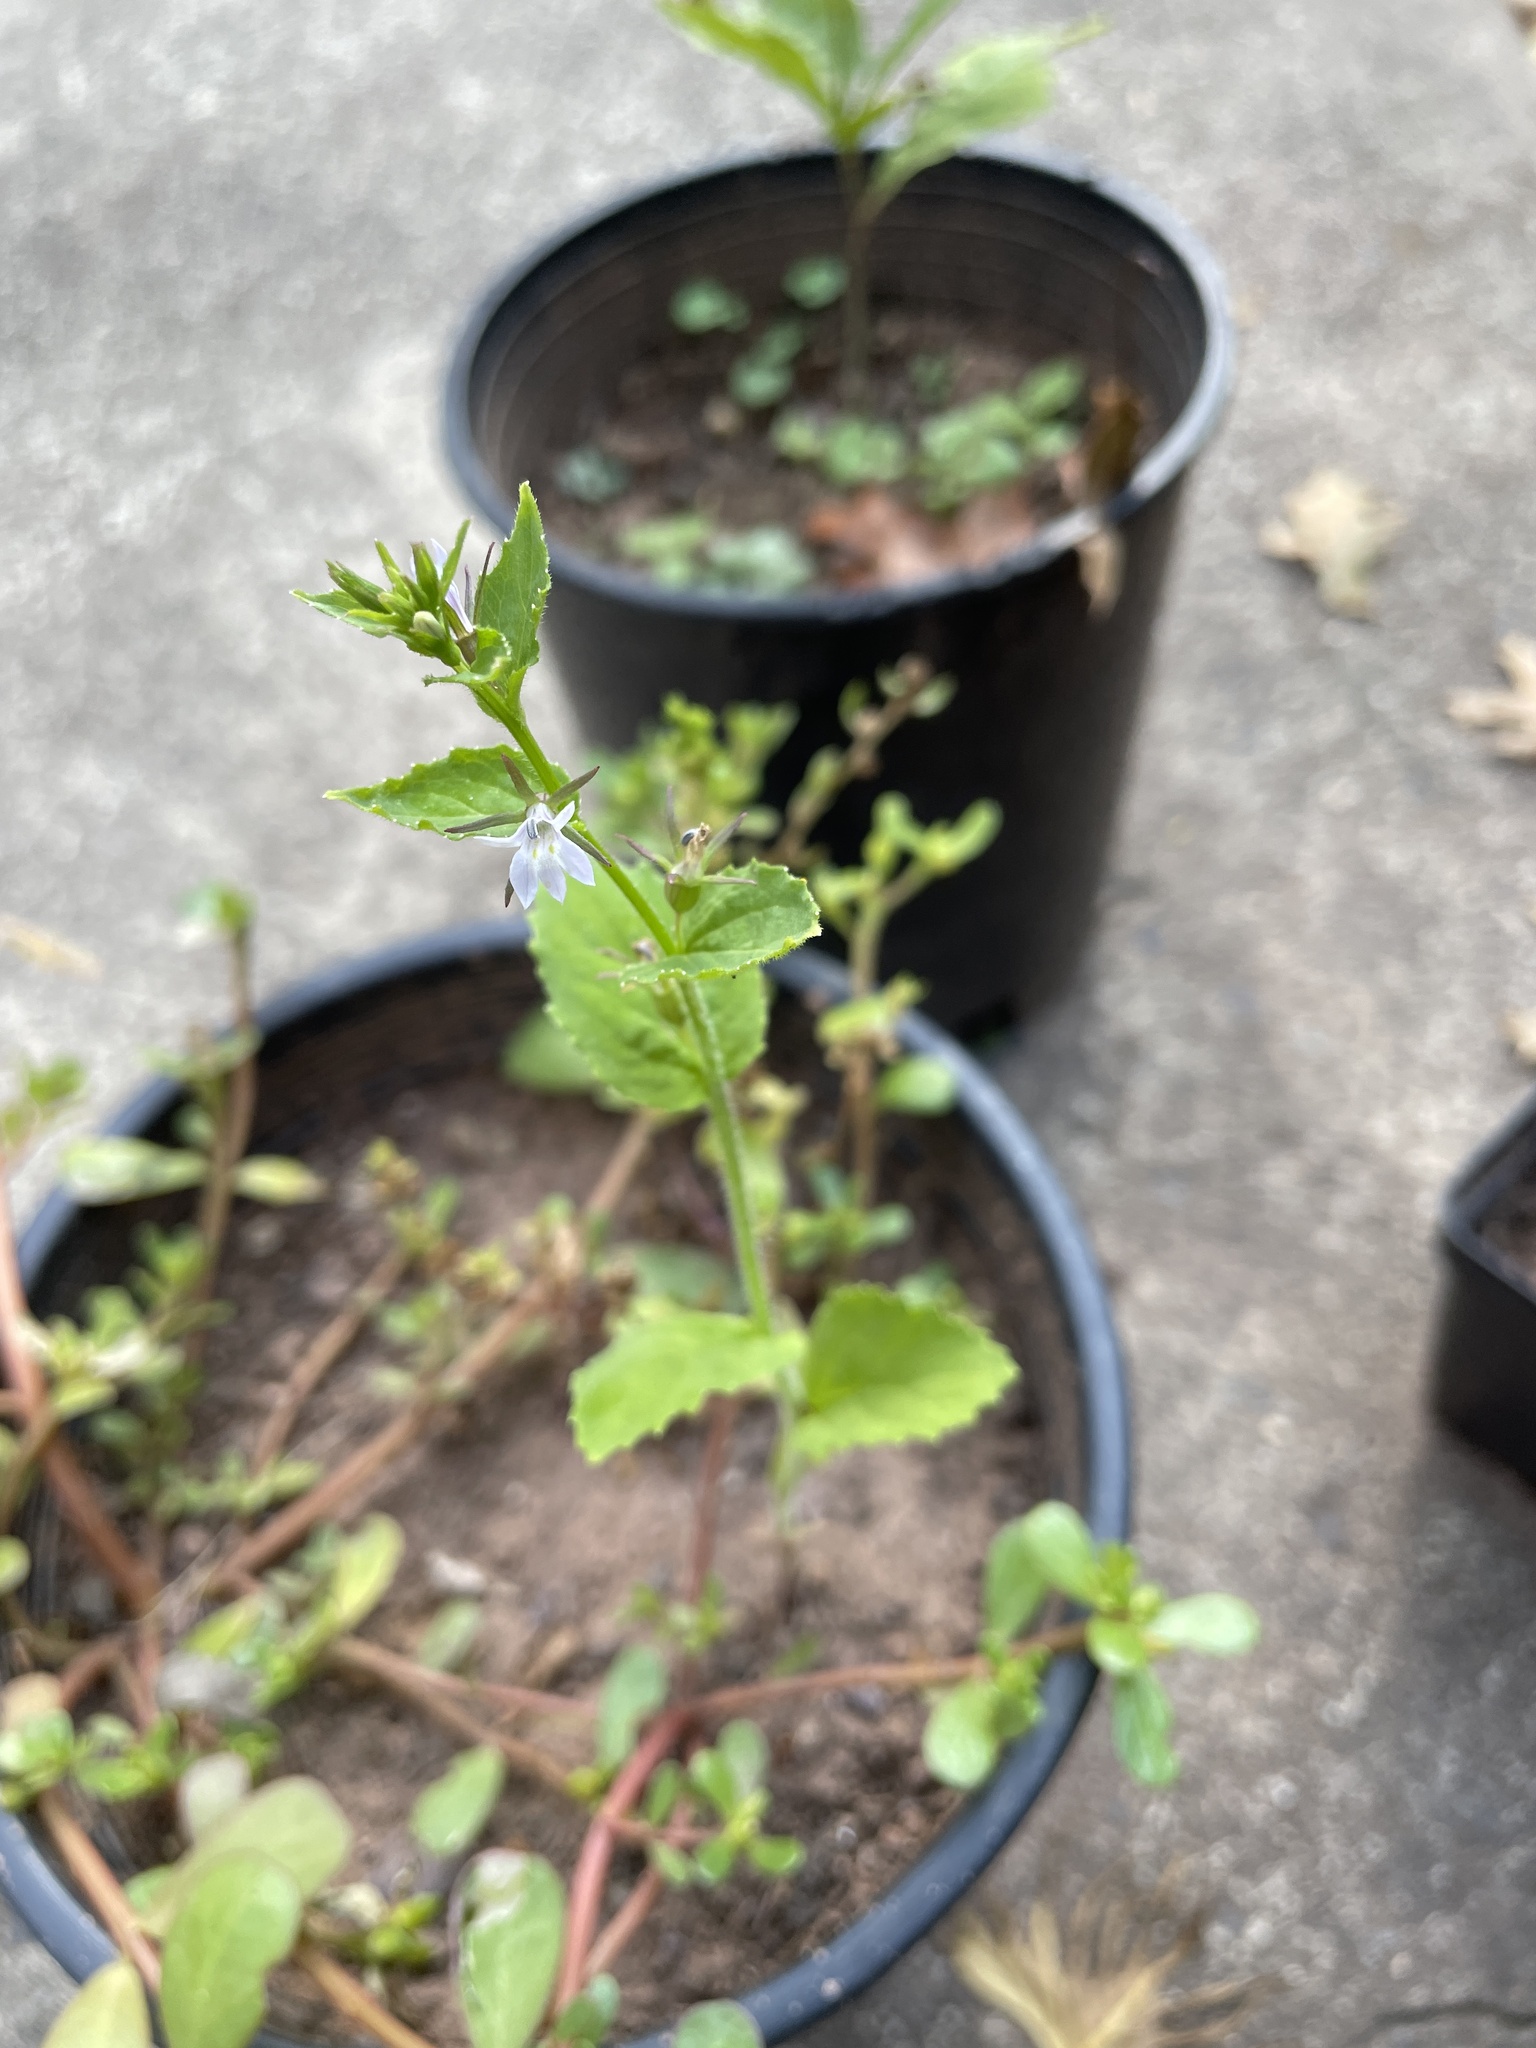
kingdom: Plantae
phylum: Tracheophyta
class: Magnoliopsida
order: Asterales
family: Campanulaceae
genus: Lobelia
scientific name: Lobelia inflata
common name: Indian tobacco
